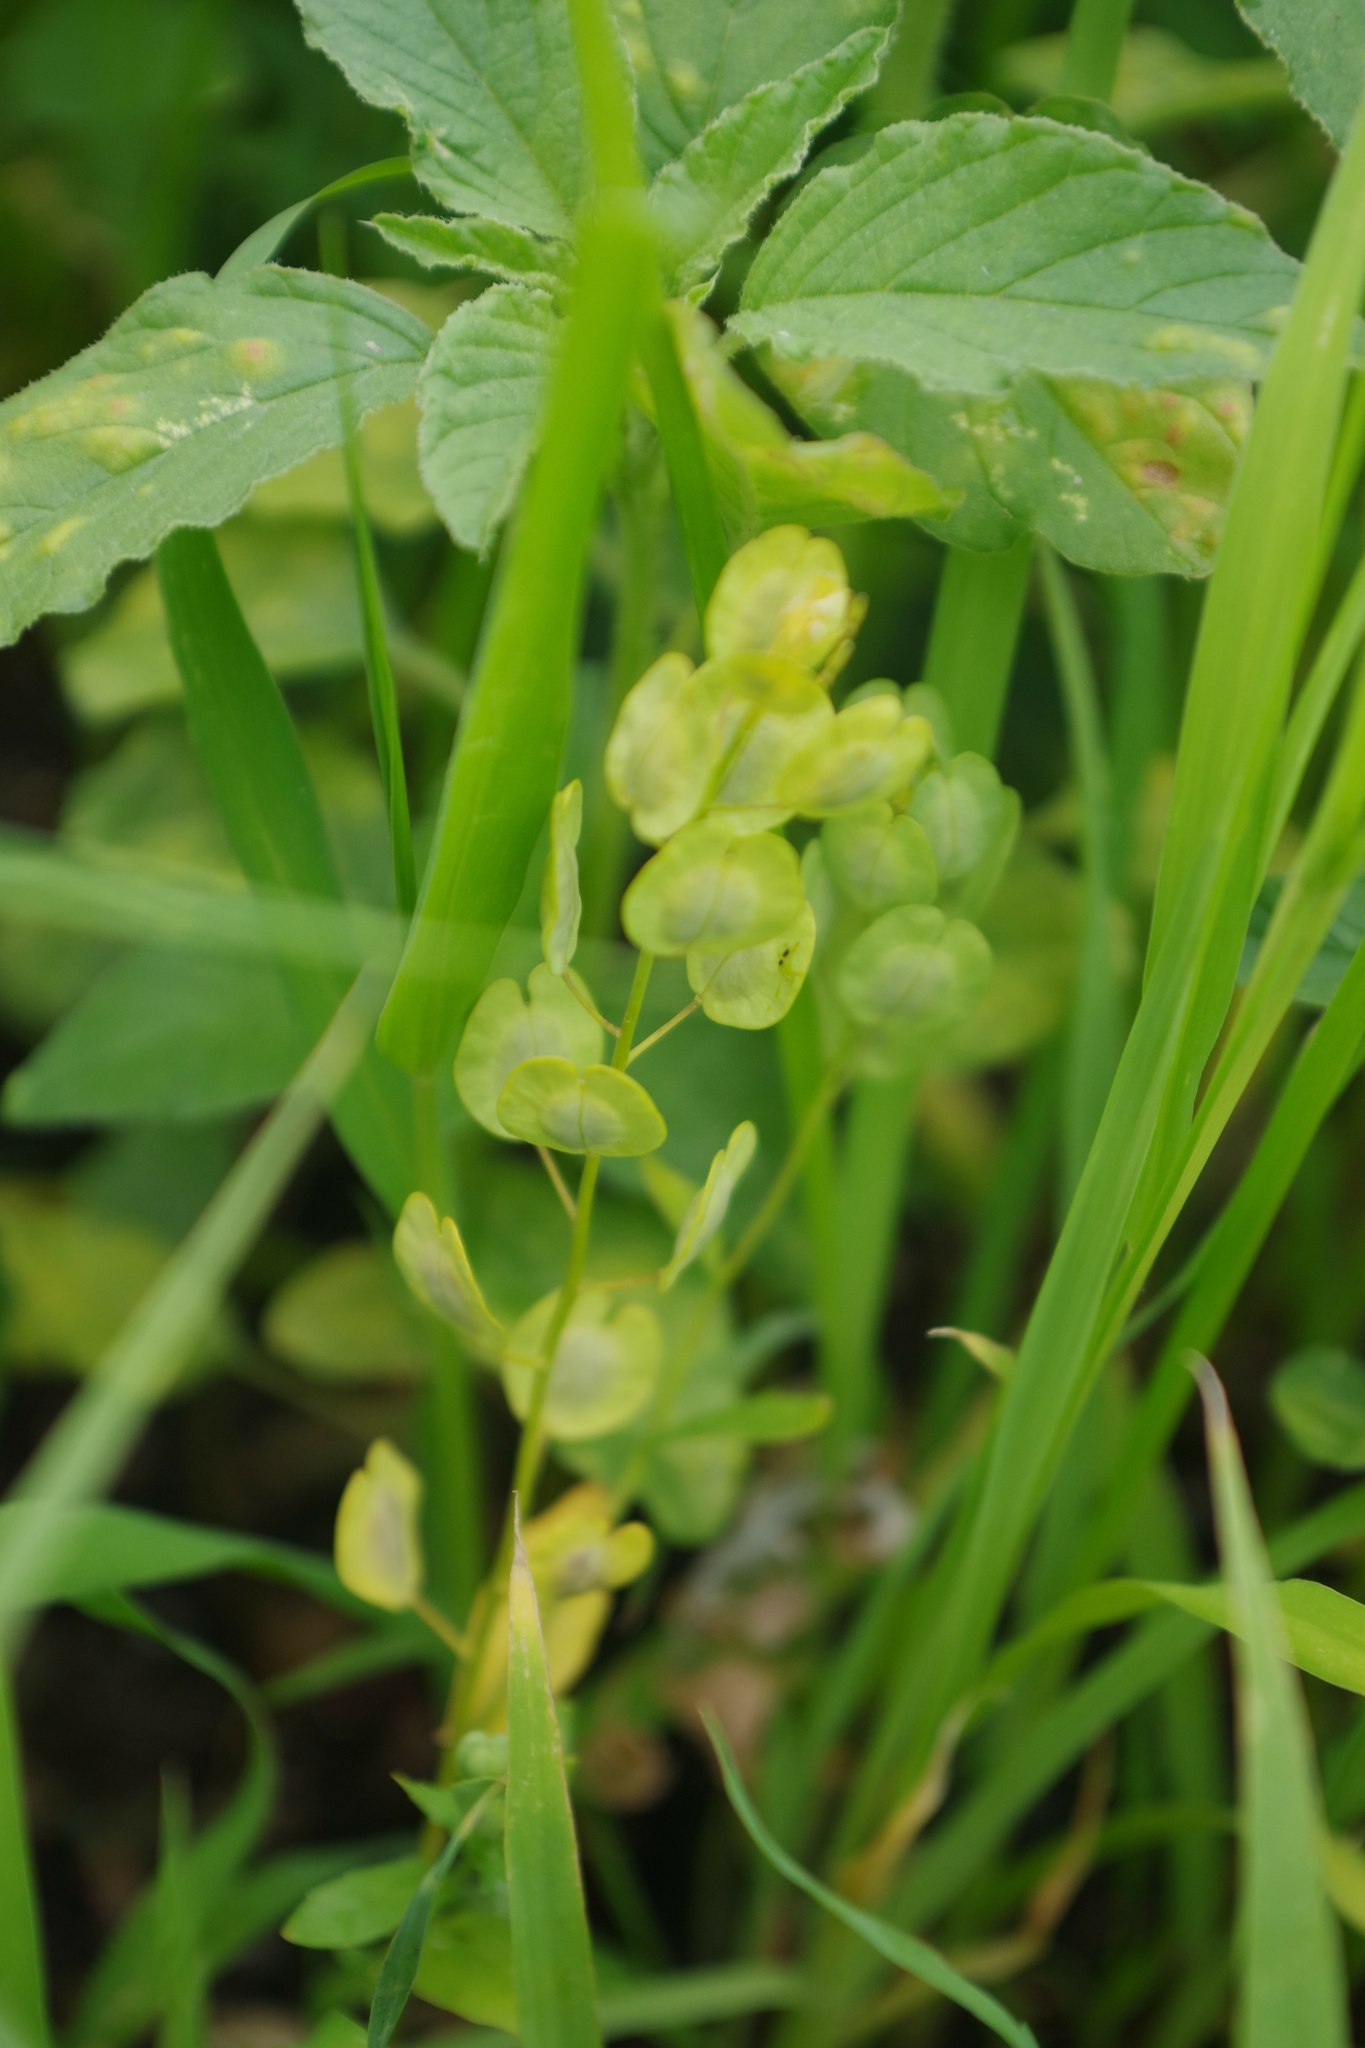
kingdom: Plantae
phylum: Tracheophyta
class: Magnoliopsida
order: Brassicales
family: Brassicaceae
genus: Thlaspi
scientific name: Thlaspi arvense
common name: Field pennycress
